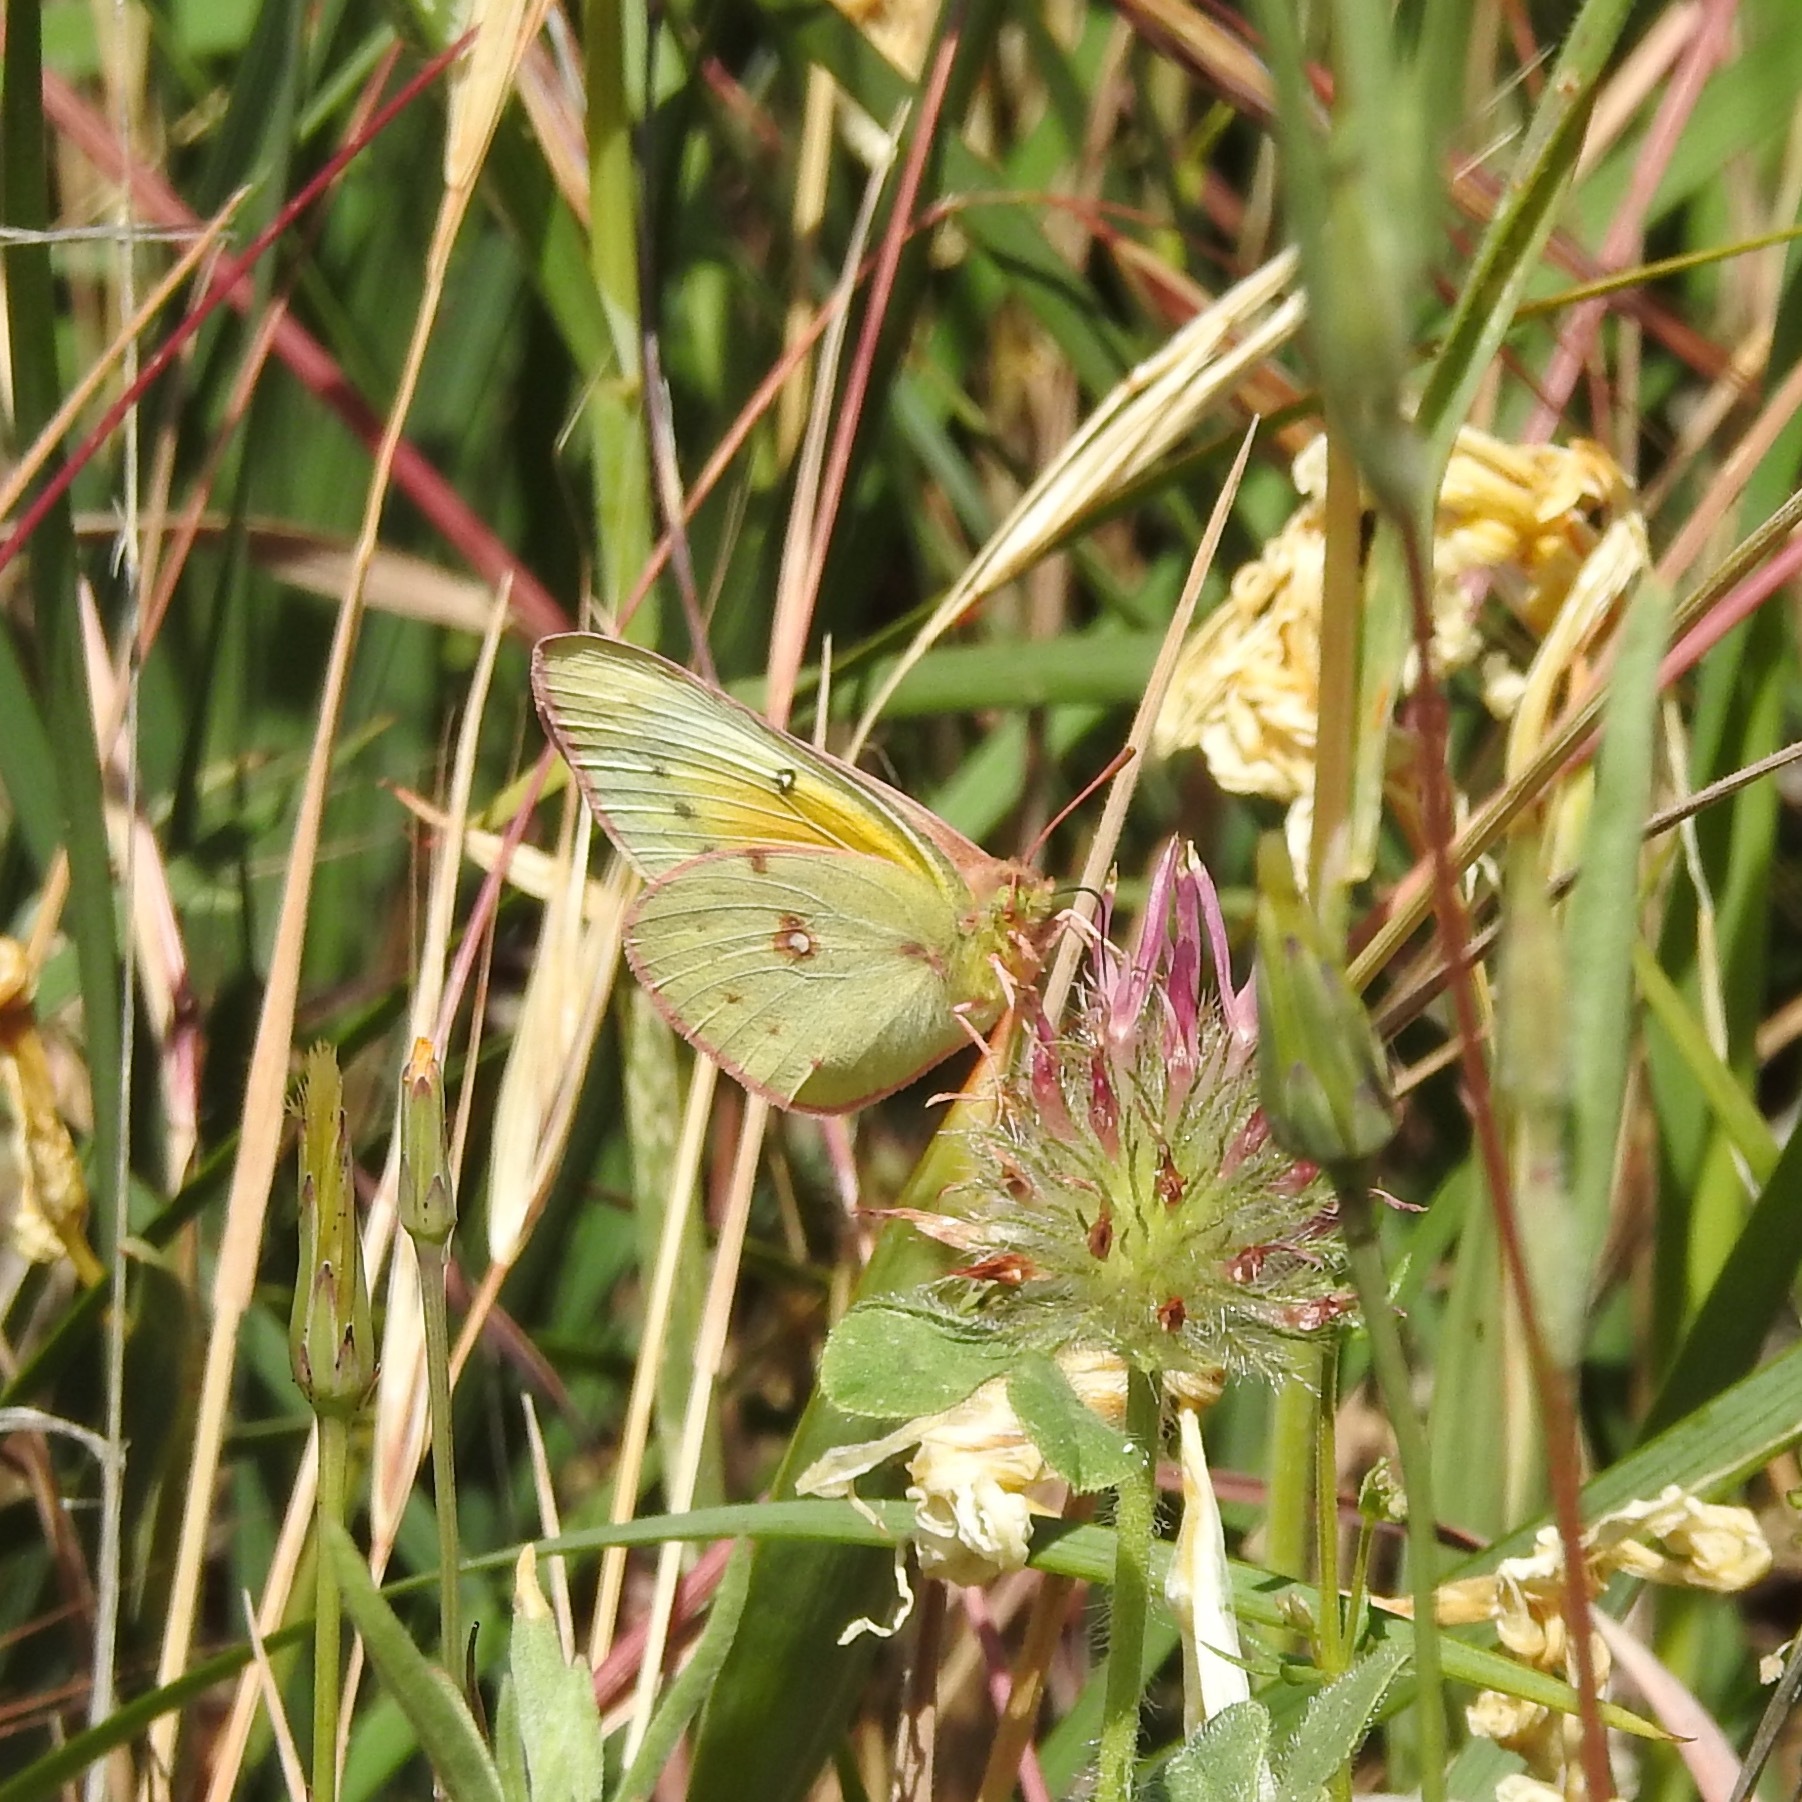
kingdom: Plantae
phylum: Tracheophyta
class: Magnoliopsida
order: Fabales
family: Fabaceae
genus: Trifolium
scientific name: Trifolium hirtum
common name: Rose clover
